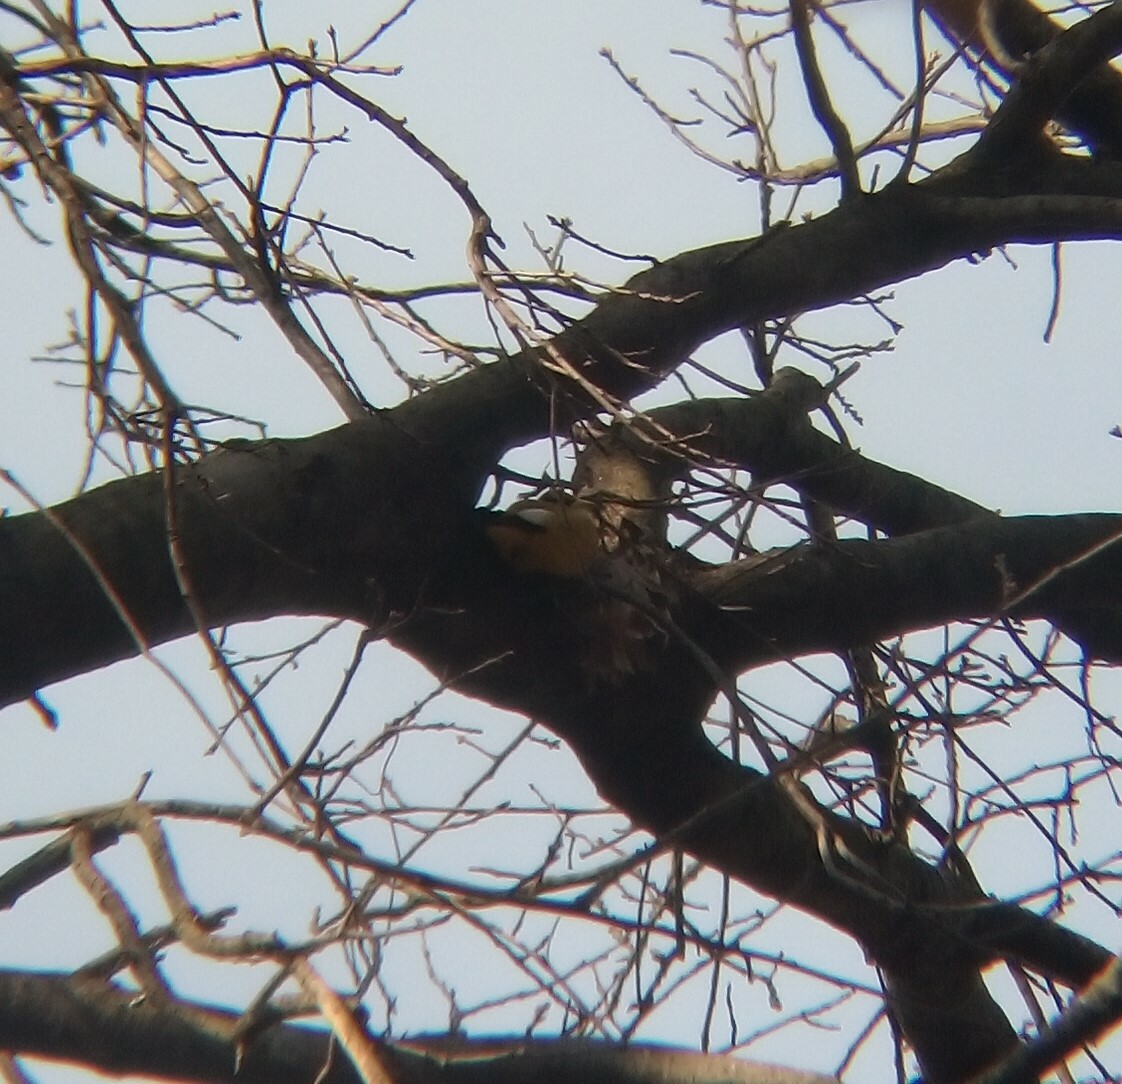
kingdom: Animalia
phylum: Chordata
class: Aves
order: Passeriformes
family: Fringillidae
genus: Hesperiphona
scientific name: Hesperiphona vespertina
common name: Evening grosbeak
